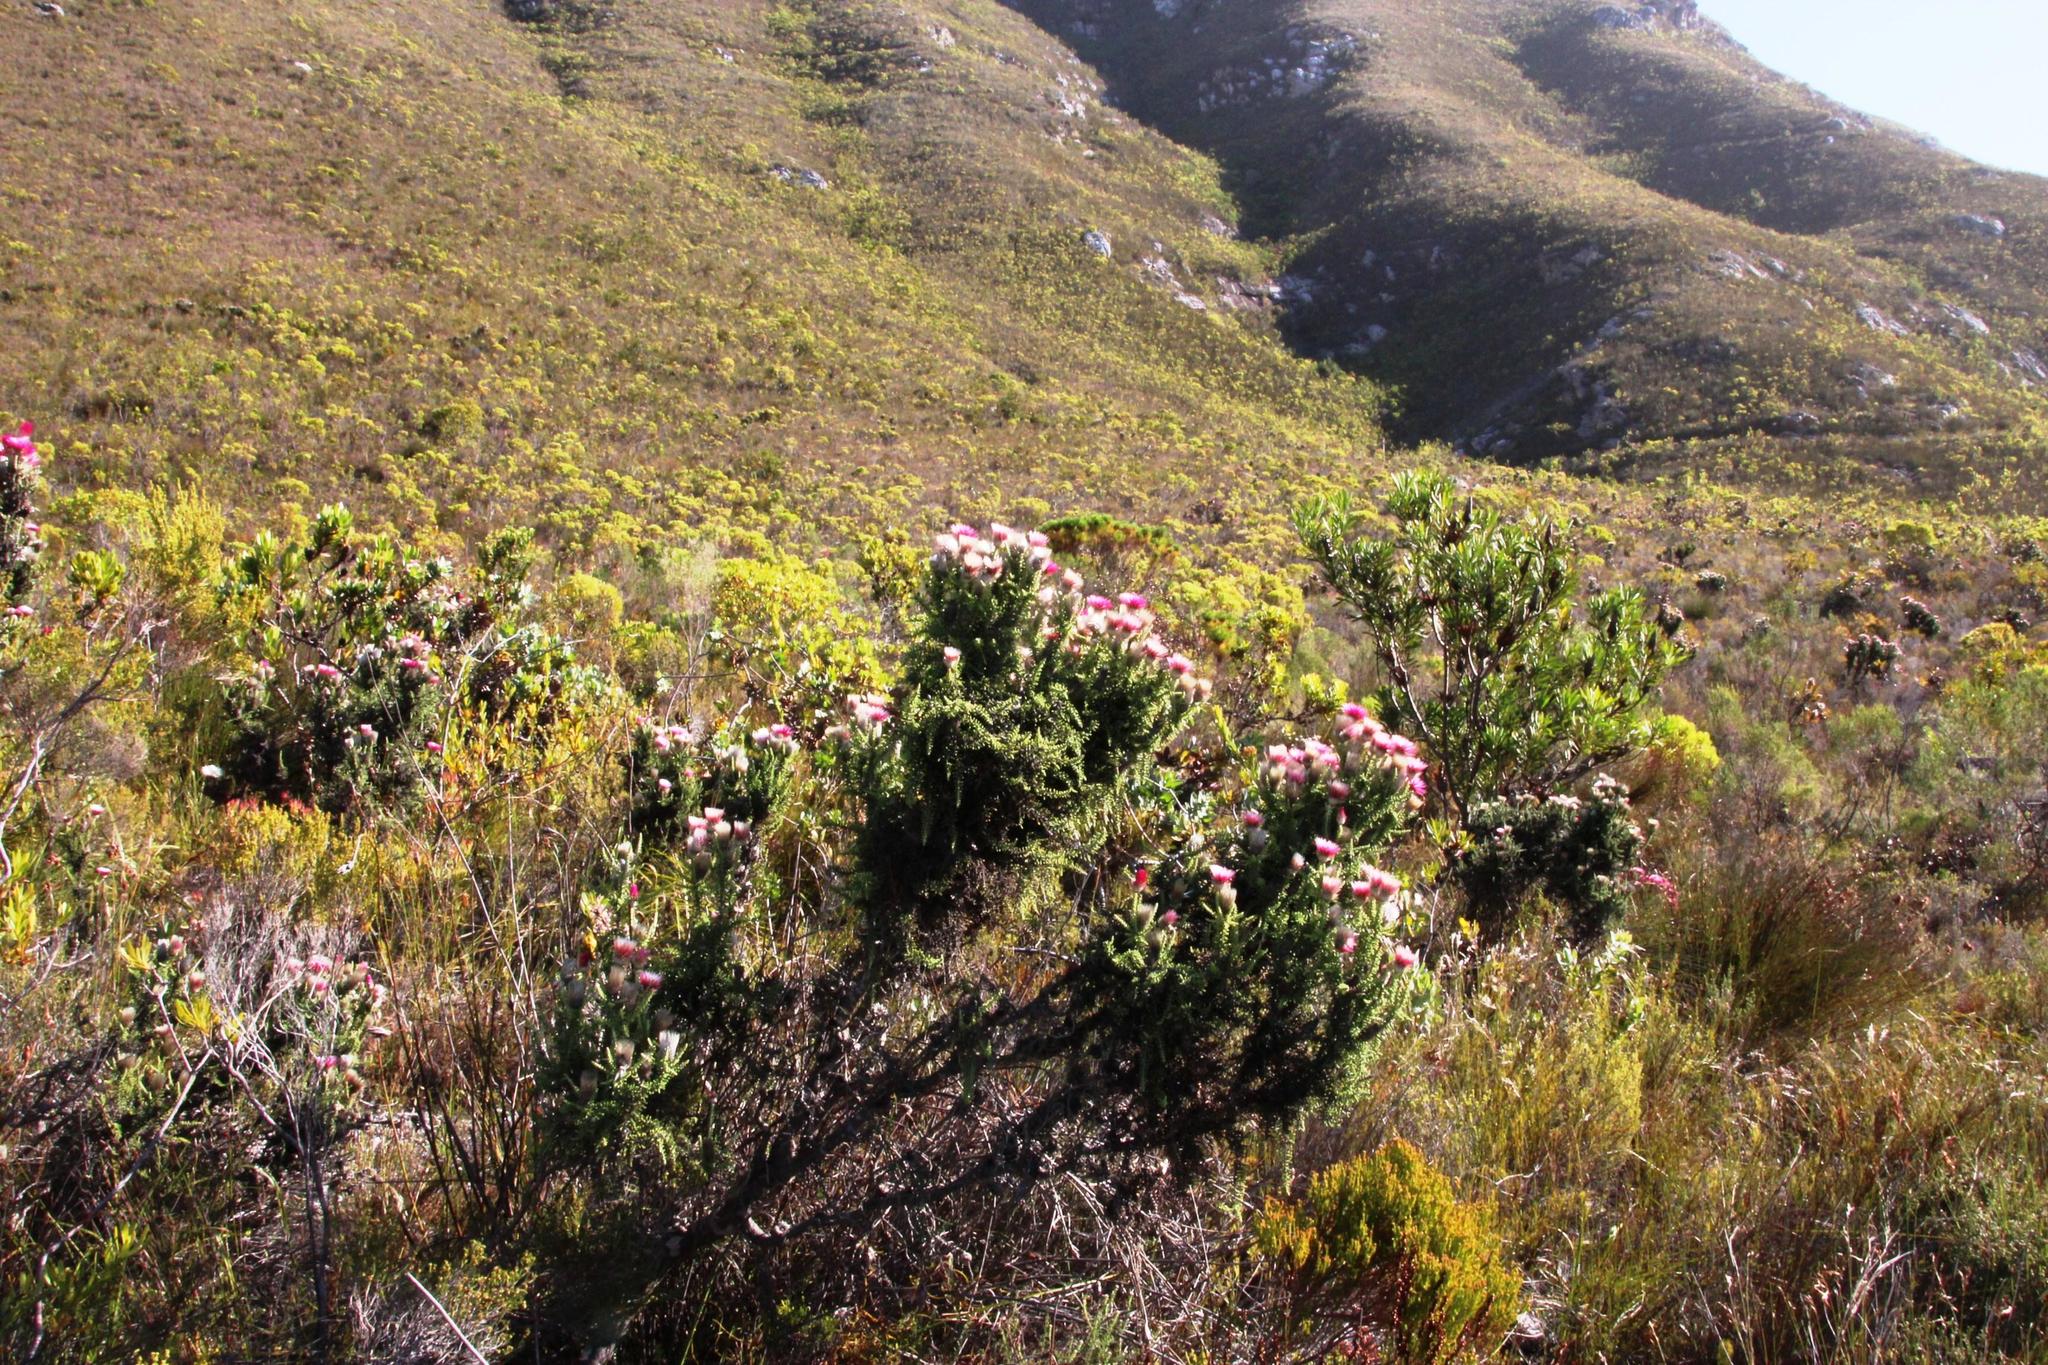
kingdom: Plantae
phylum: Tracheophyta
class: Magnoliopsida
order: Asterales
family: Asteraceae
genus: Phaenocoma
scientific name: Phaenocoma prolifera
